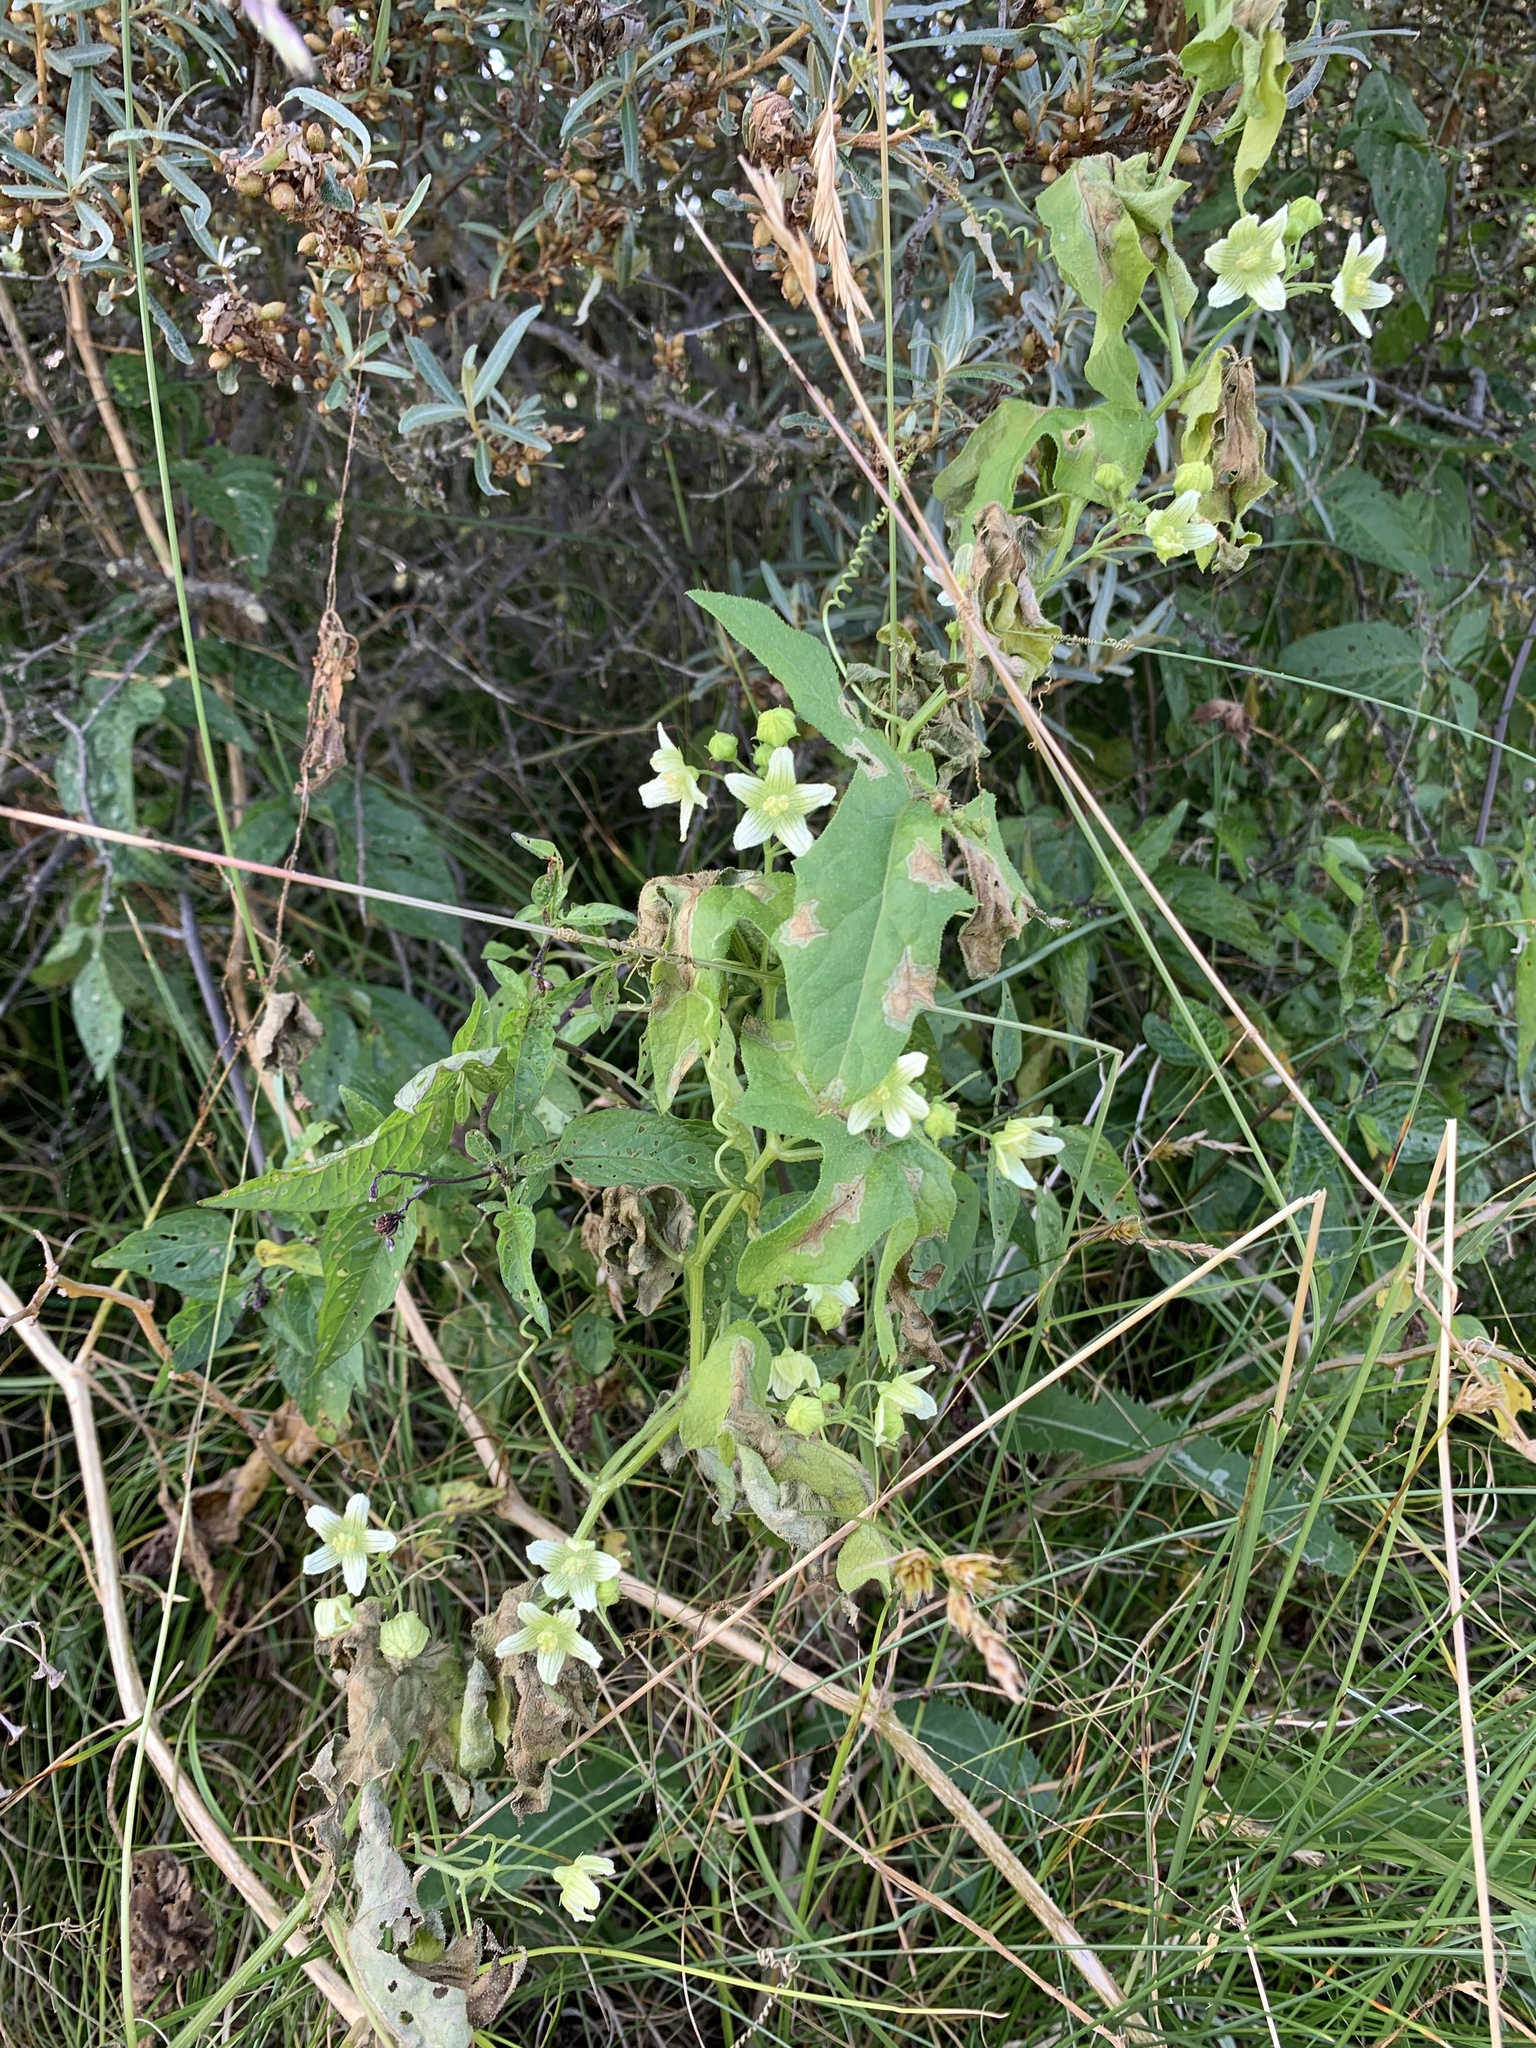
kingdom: Plantae
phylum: Tracheophyta
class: Magnoliopsida
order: Cucurbitales
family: Cucurbitaceae
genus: Bryonia
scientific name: Bryonia cretica
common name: Cretan bryony
